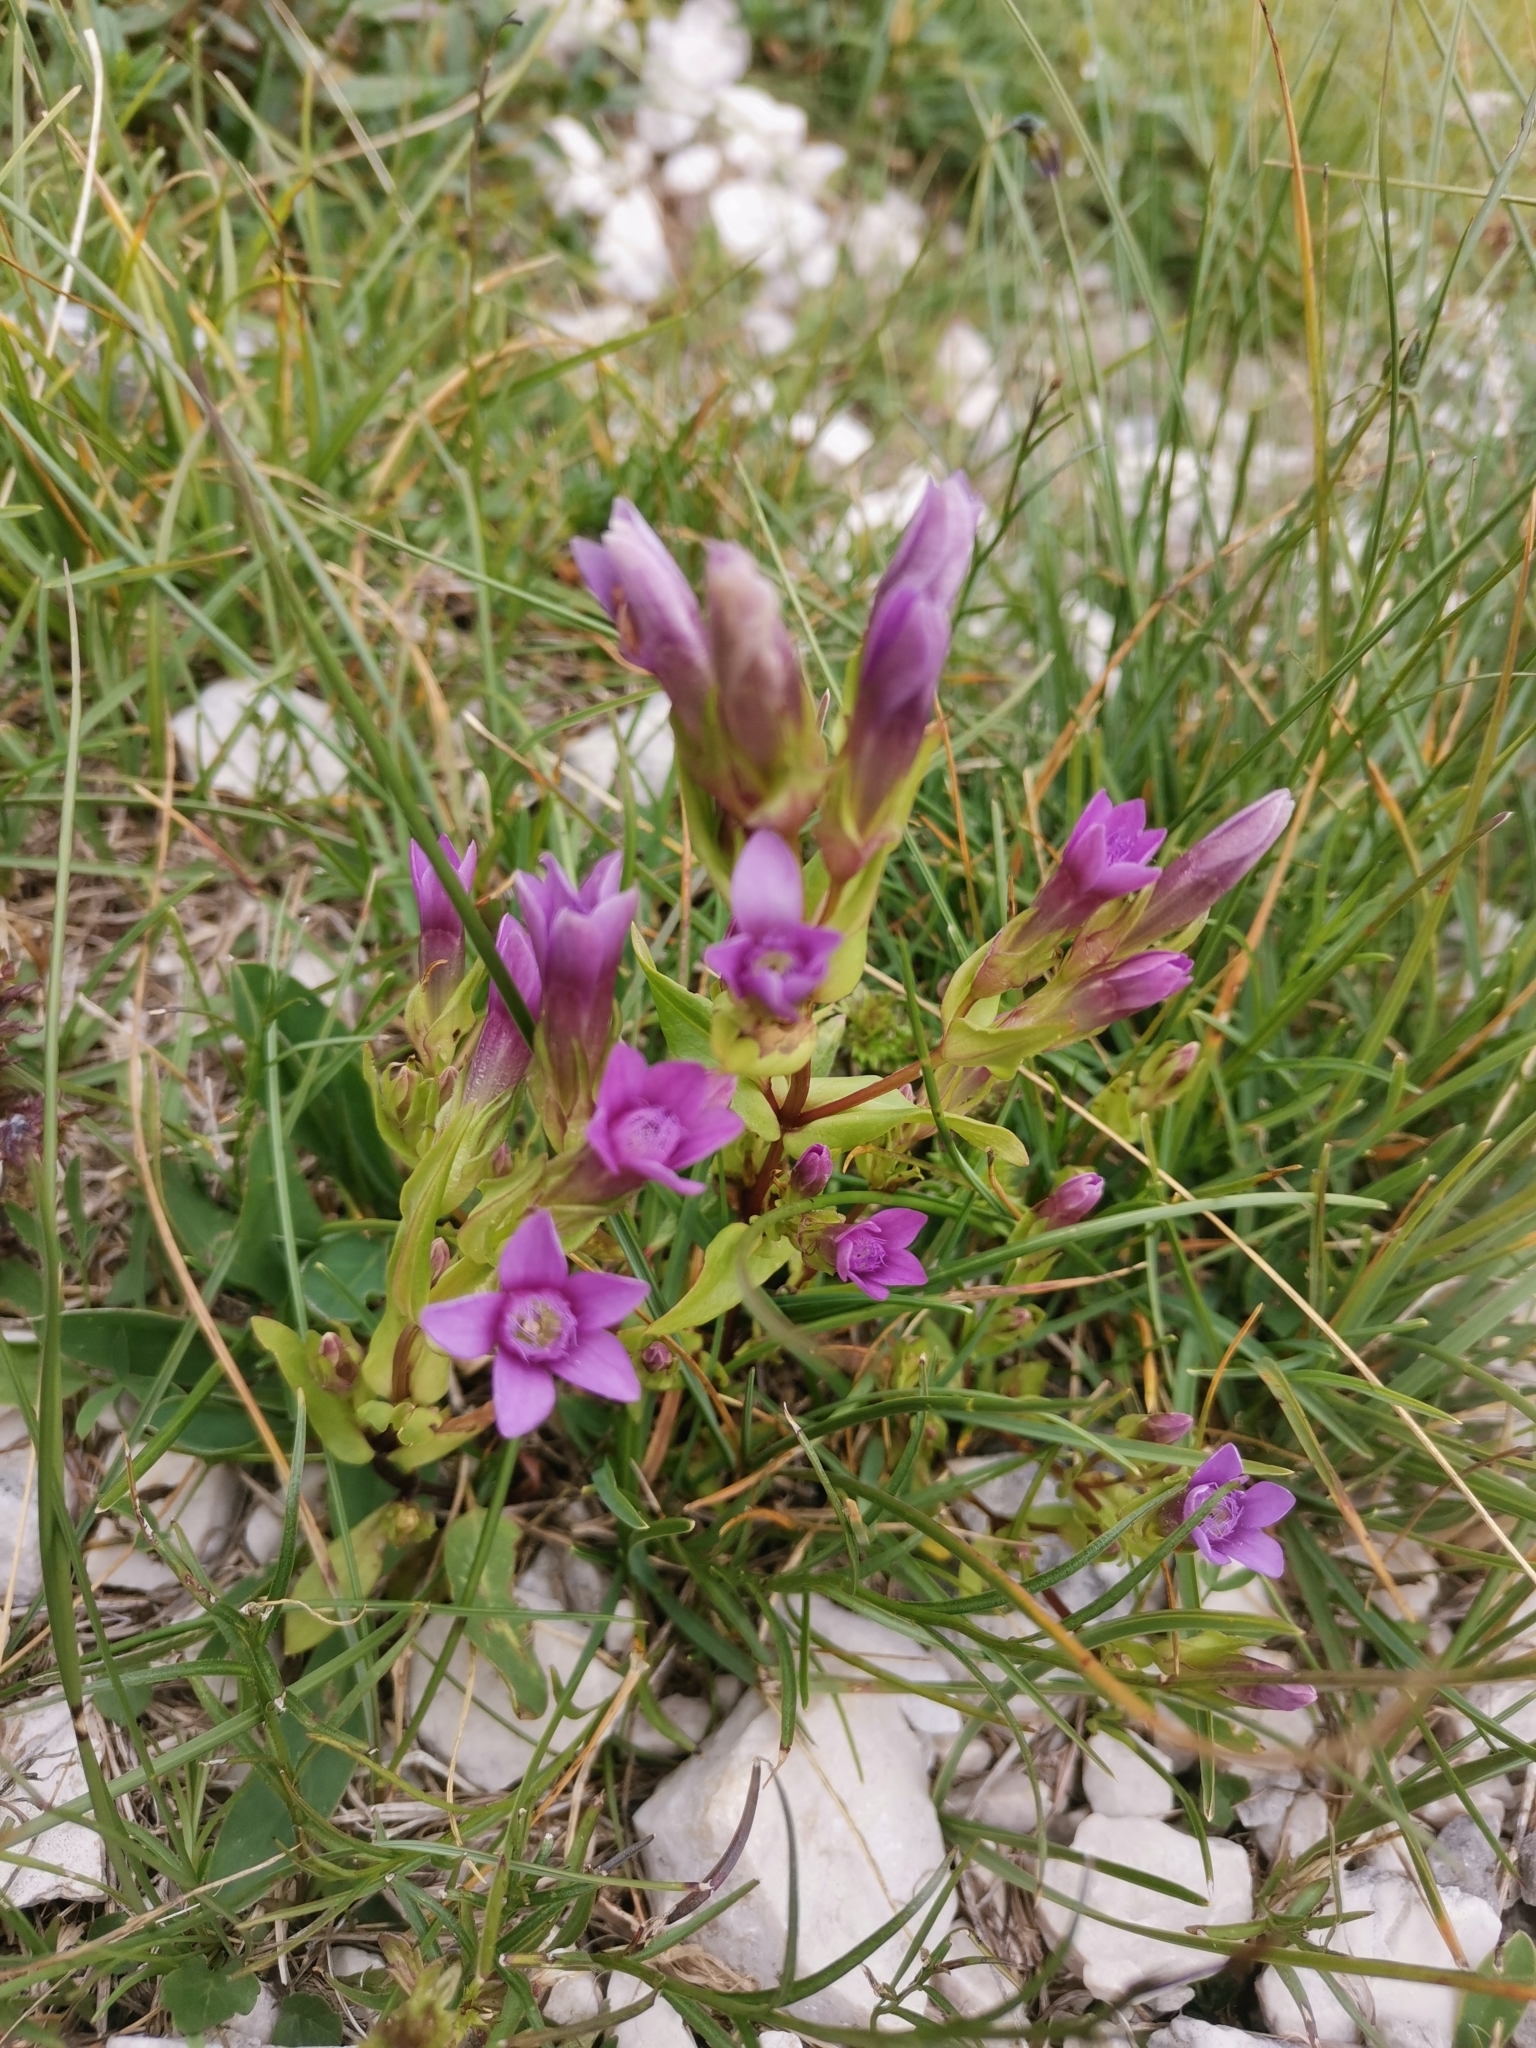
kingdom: Plantae
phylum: Tracheophyta
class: Magnoliopsida
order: Gentianales
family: Gentianaceae
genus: Gentianella
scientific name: Gentianella anisodonta
